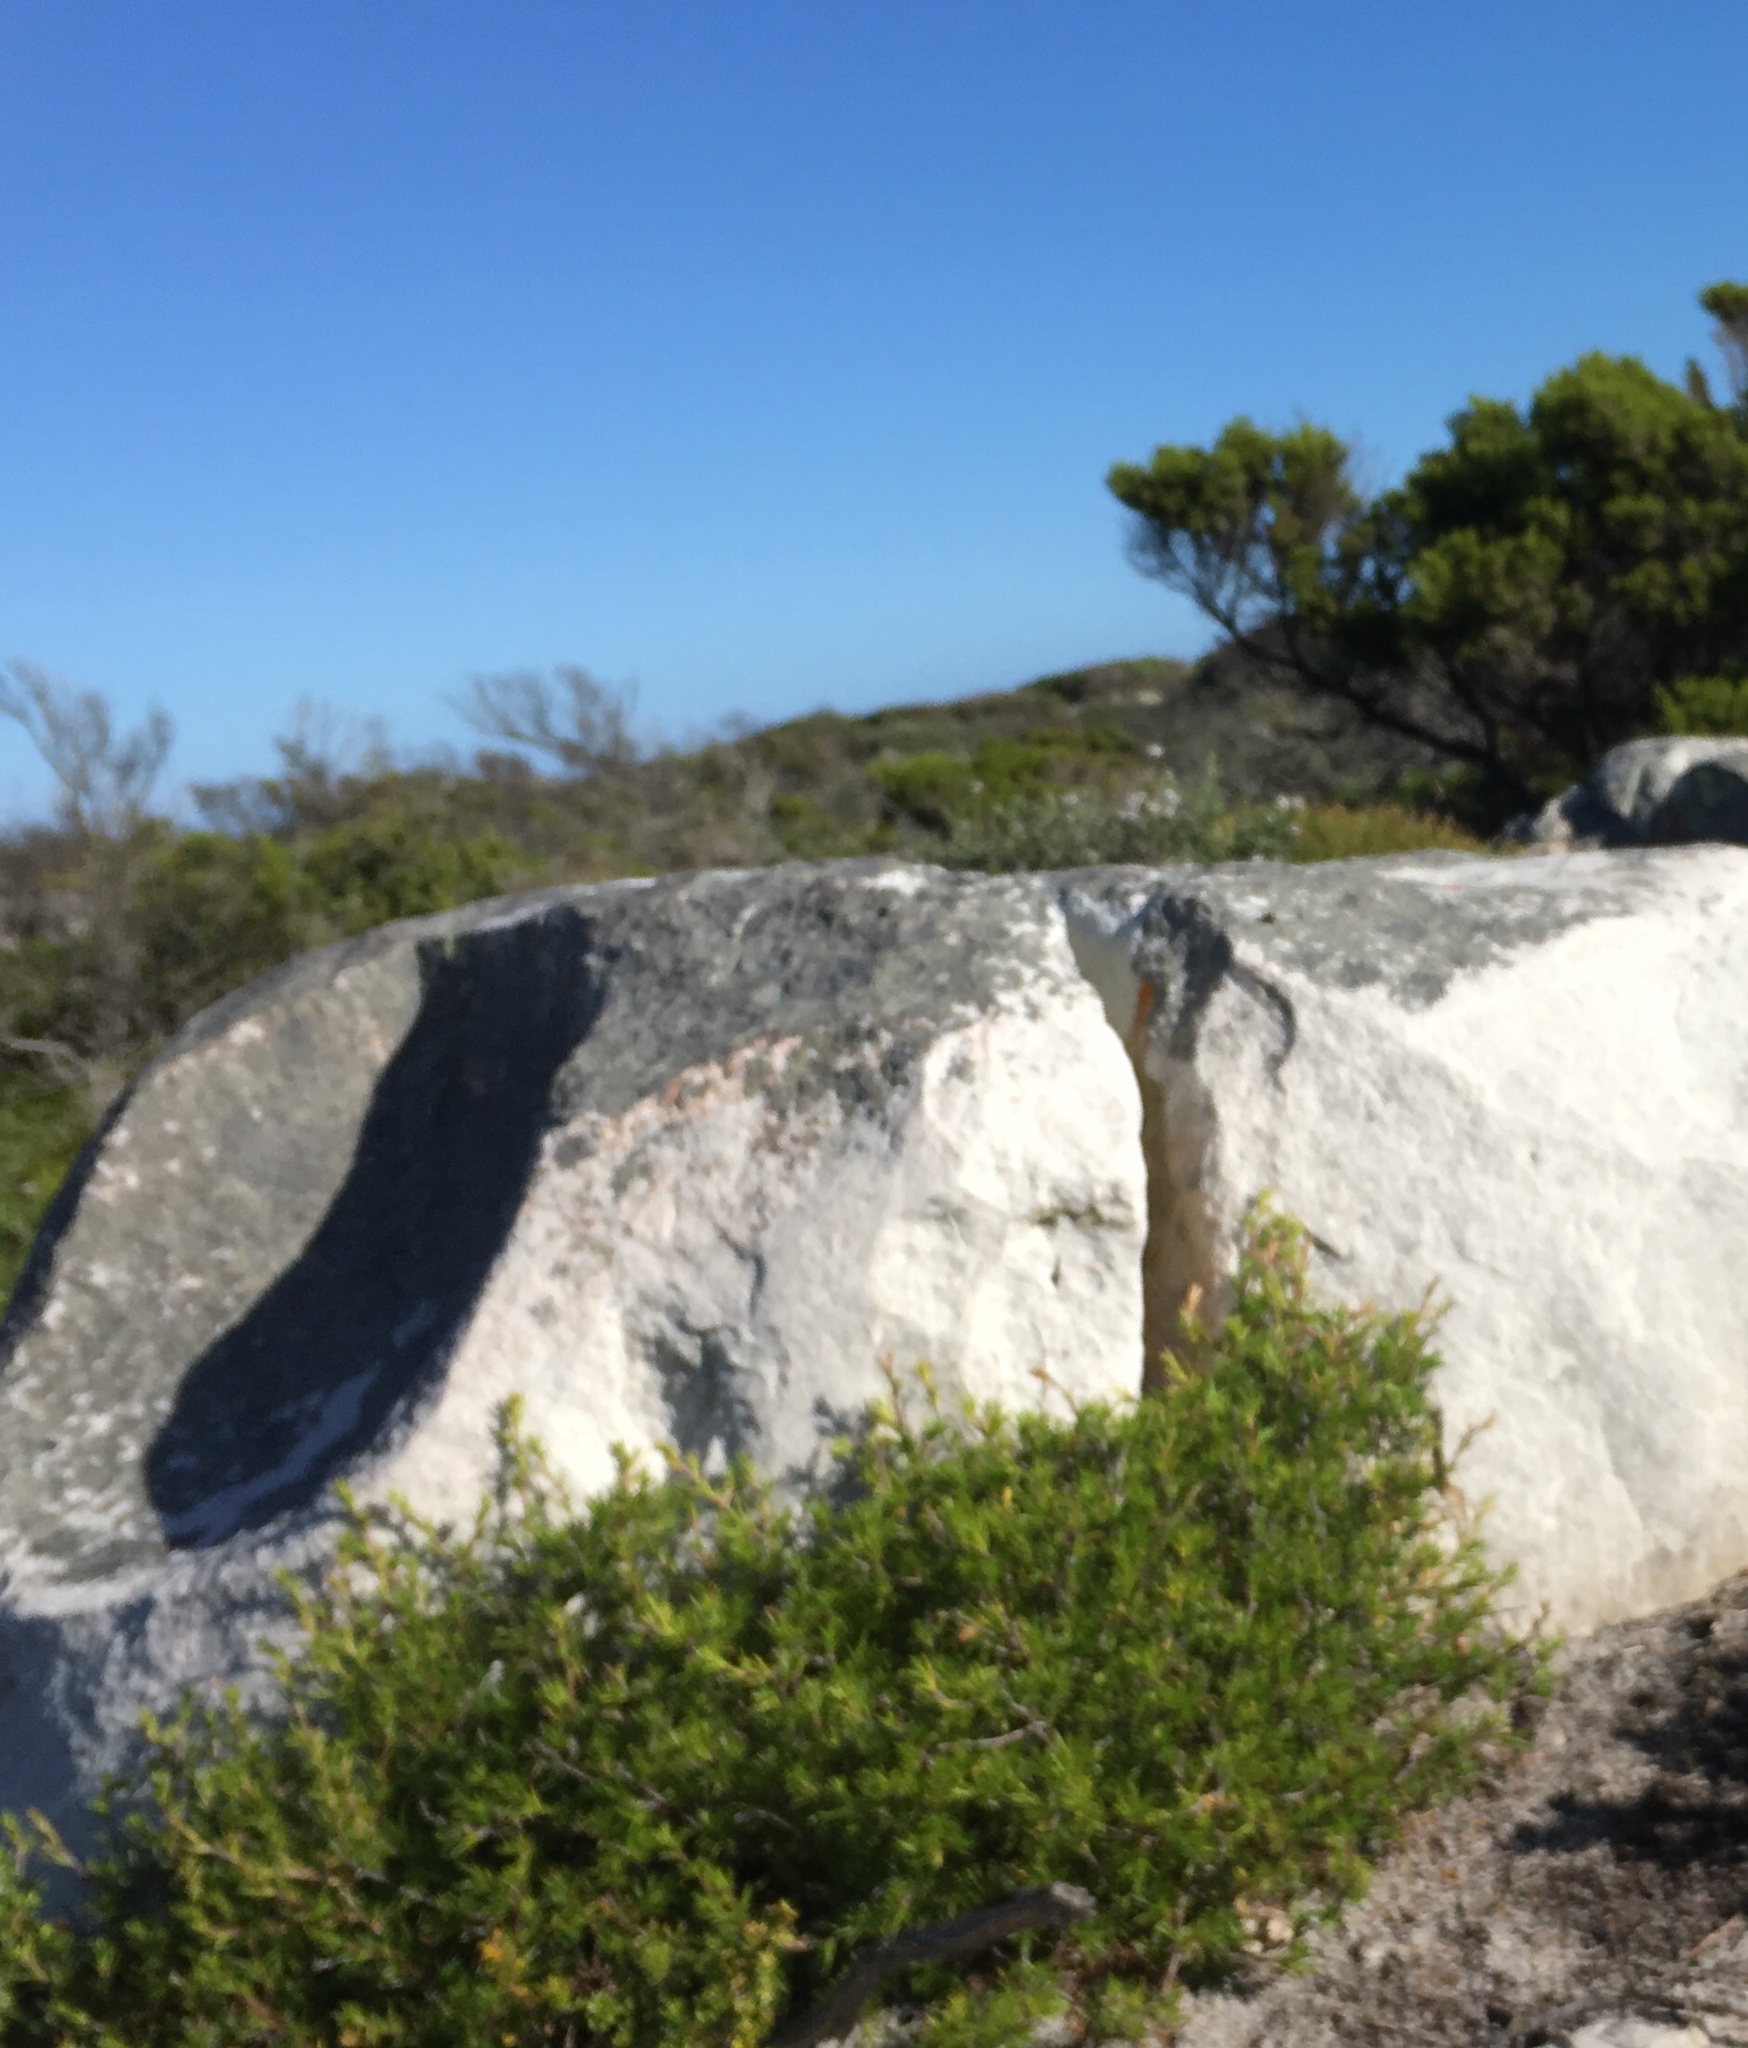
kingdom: Plantae
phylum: Tracheophyta
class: Magnoliopsida
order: Rosales
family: Rosaceae
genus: Cliffortia
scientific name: Cliffortia atrata
